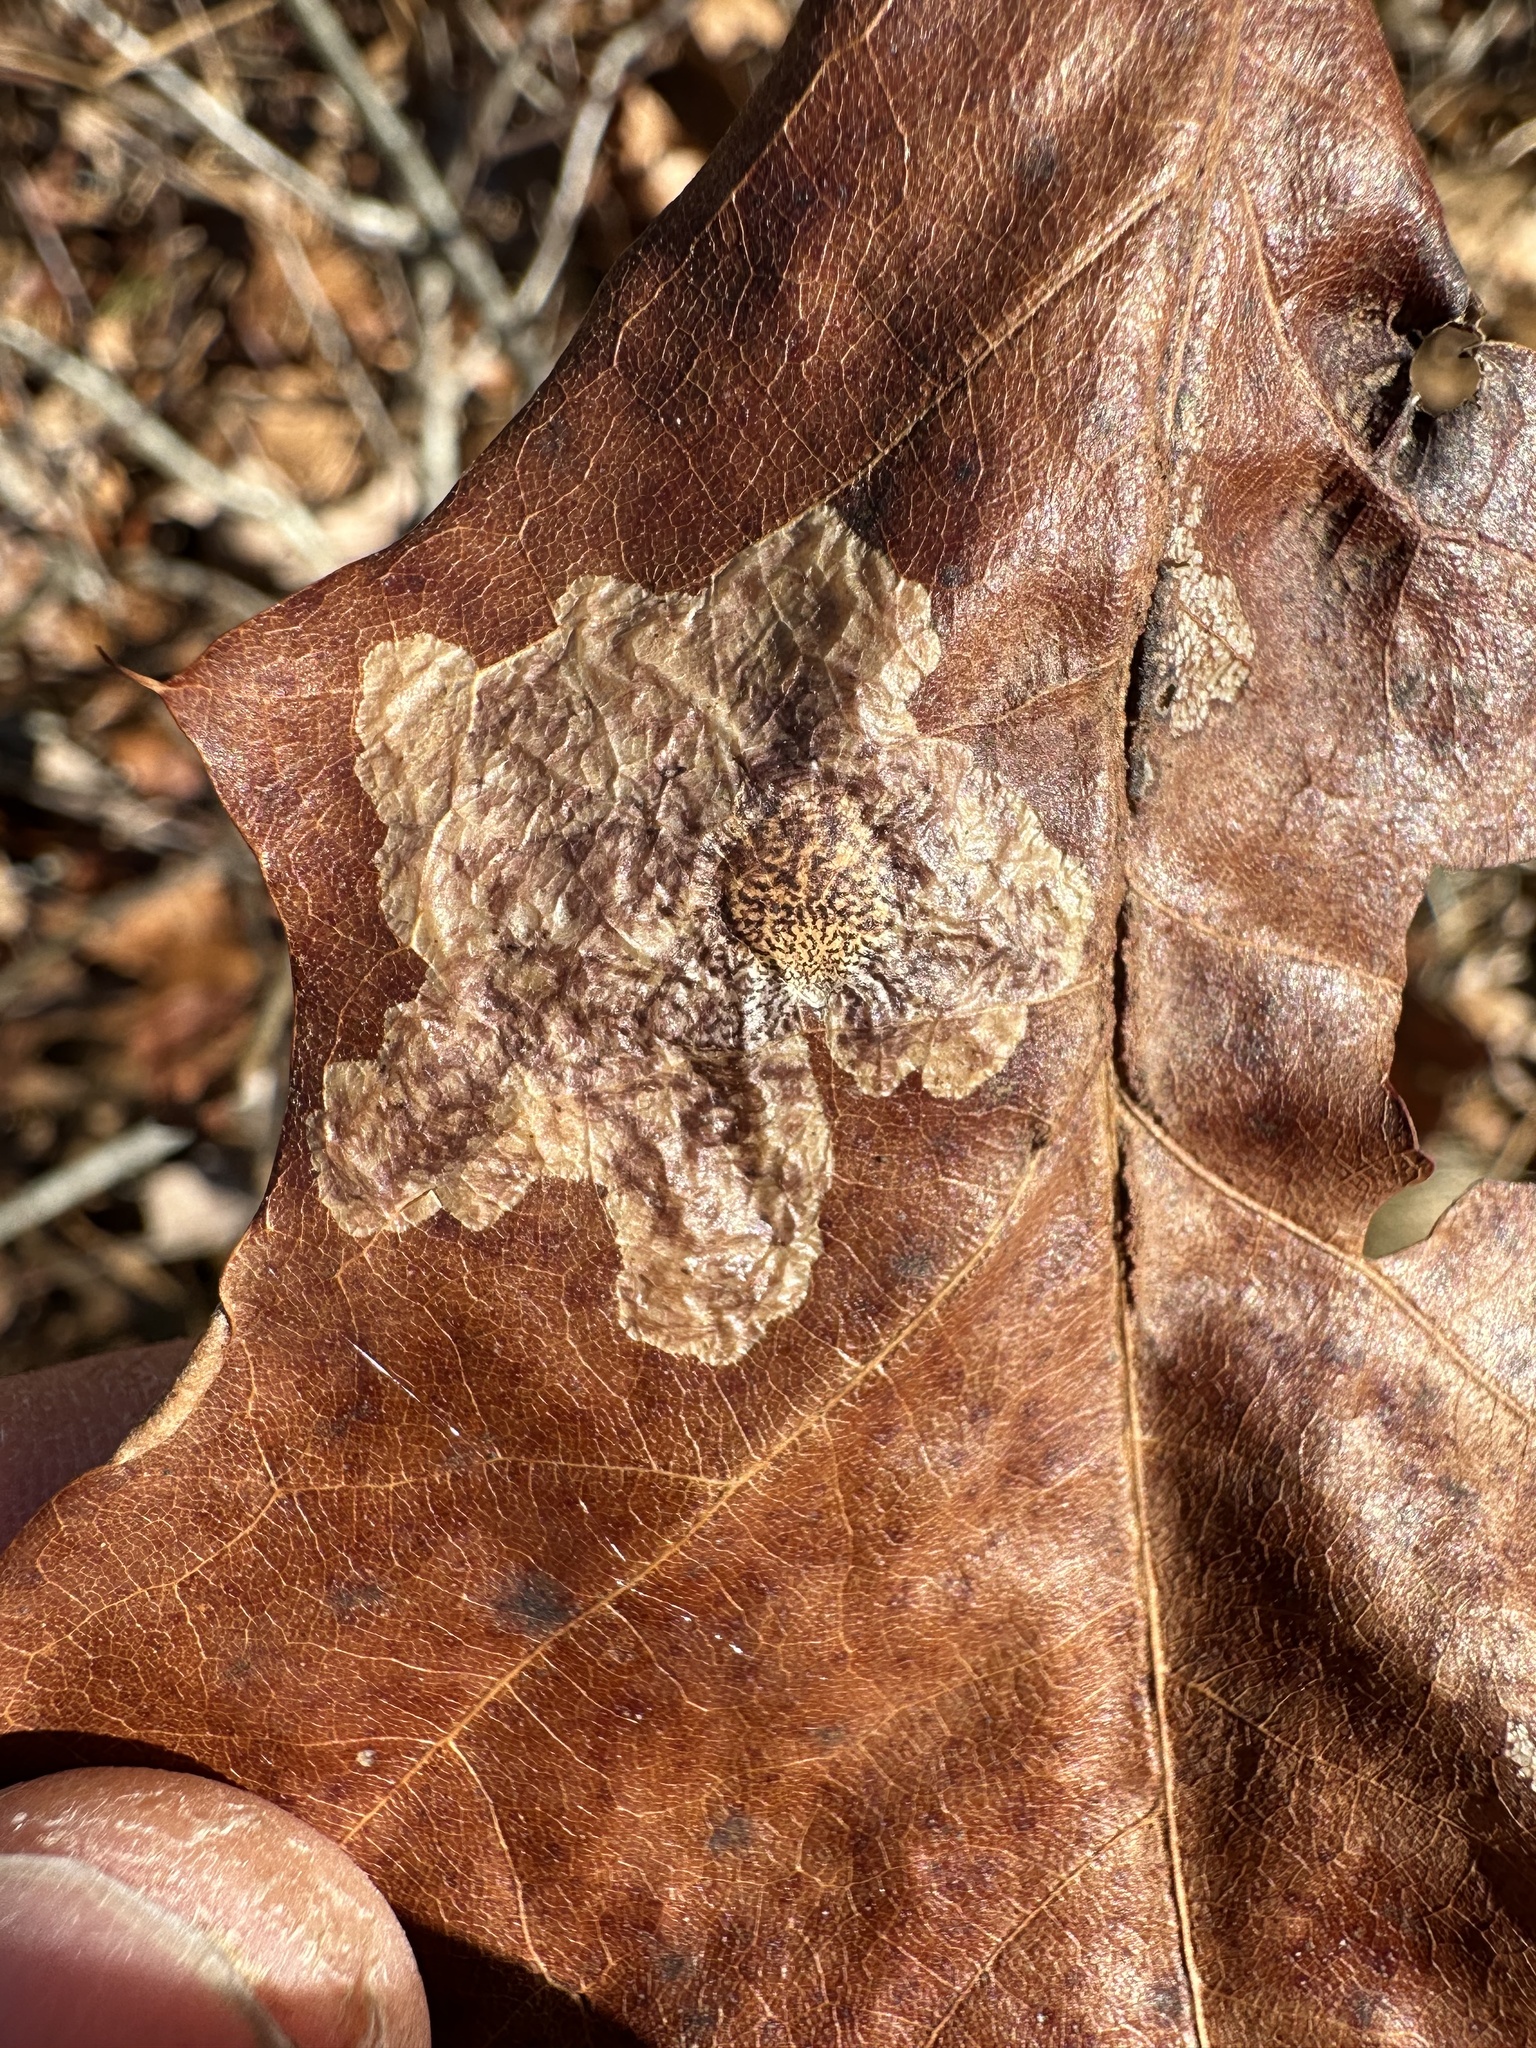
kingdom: Animalia
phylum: Arthropoda
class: Insecta
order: Lepidoptera
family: Tischeriidae
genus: Tischeria
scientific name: Tischeria quercitella
